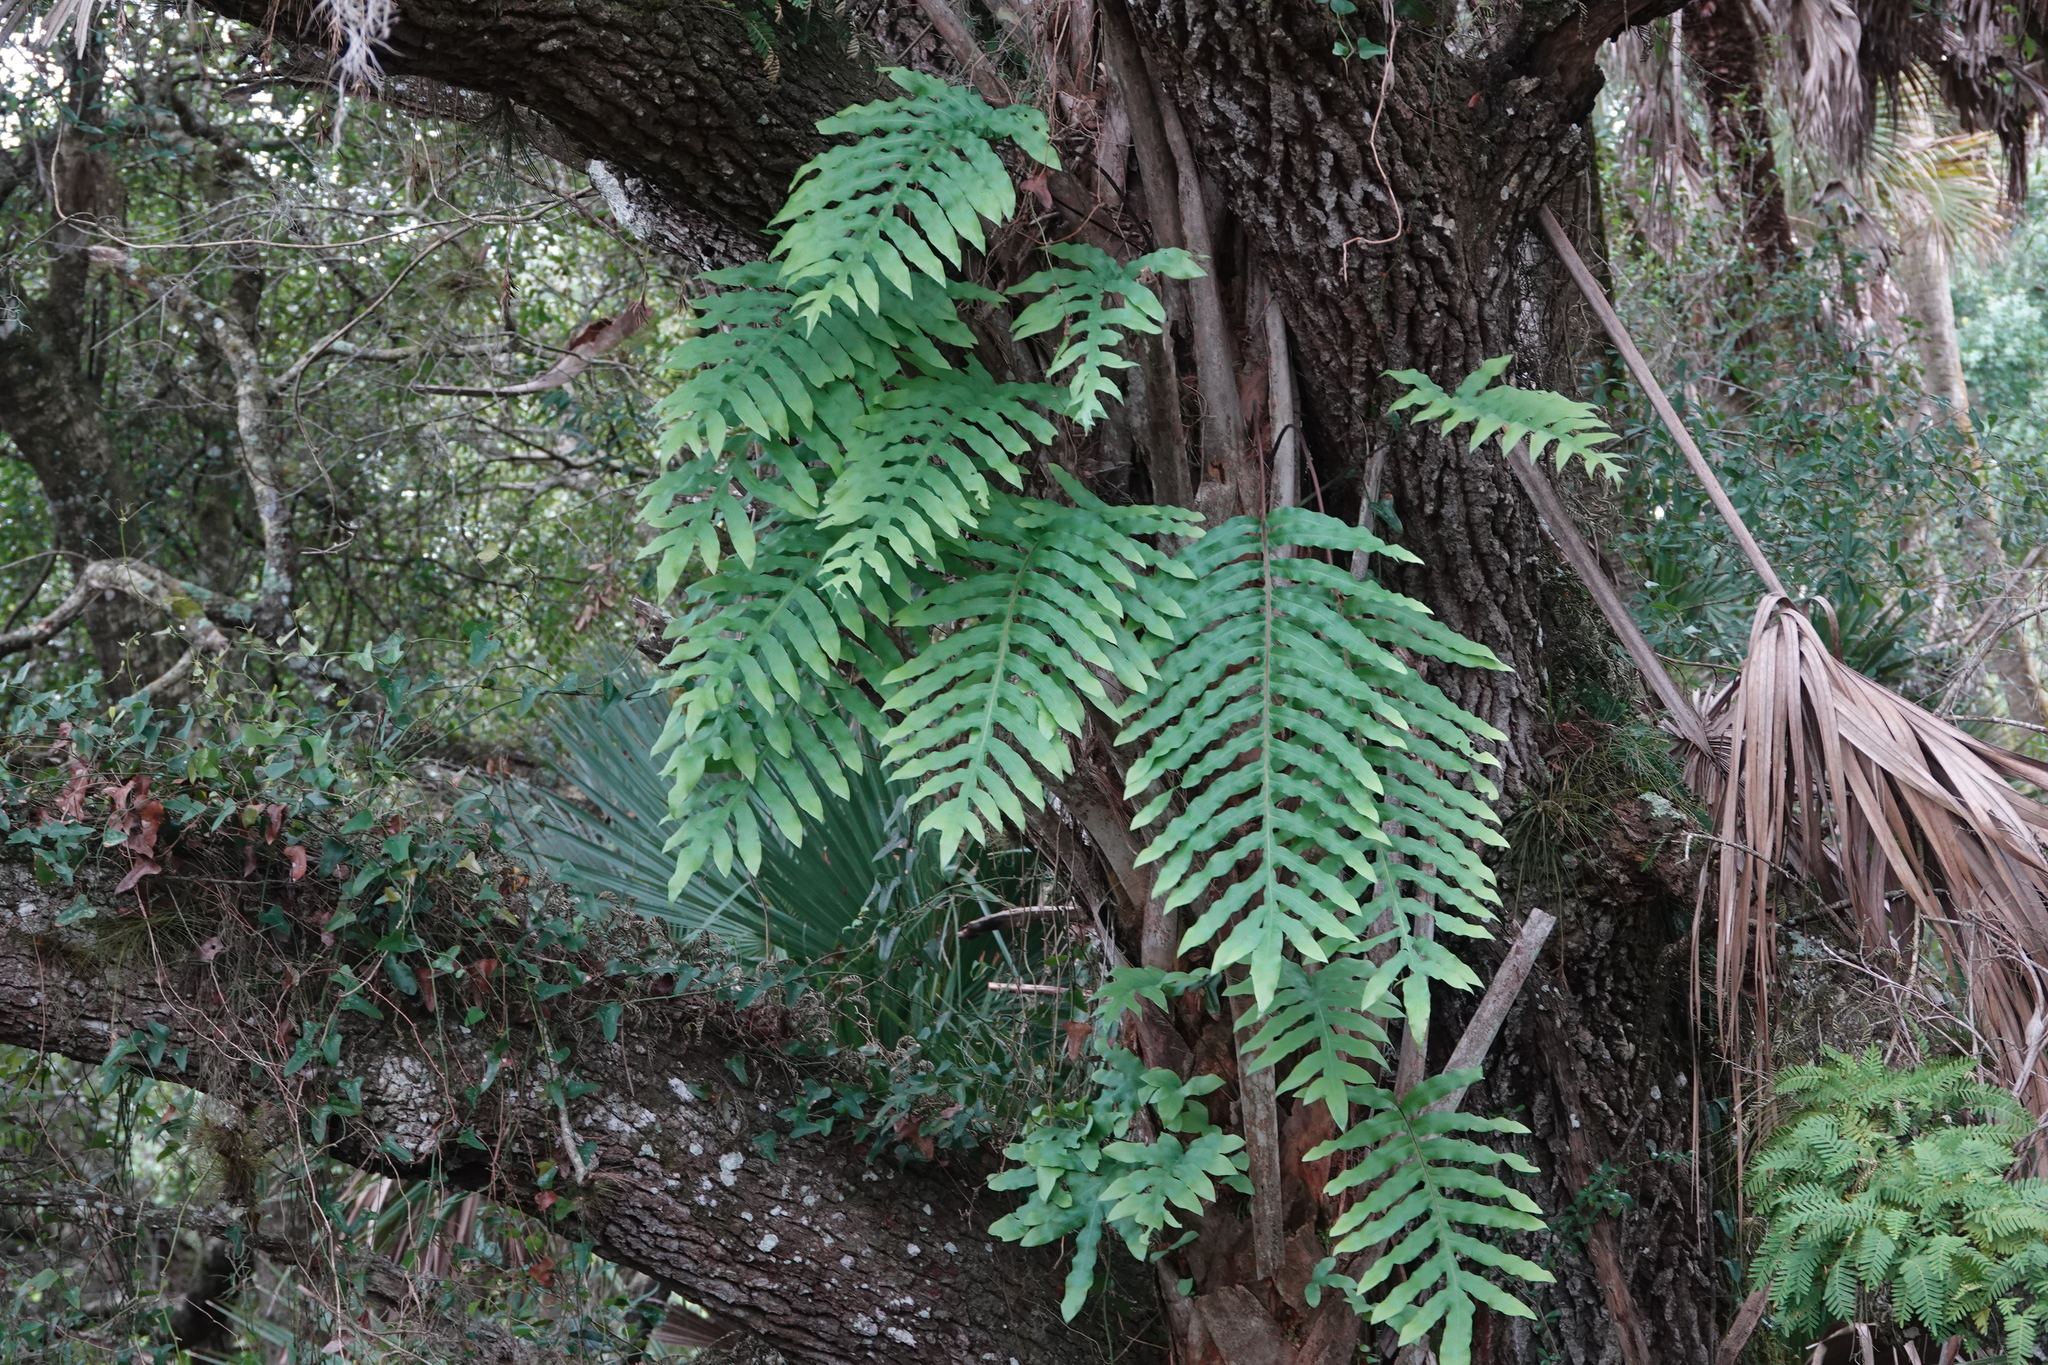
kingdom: Plantae
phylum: Tracheophyta
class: Polypodiopsida
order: Polypodiales
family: Polypodiaceae
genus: Phlebodium
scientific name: Phlebodium aureum
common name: Gold-foot fern
